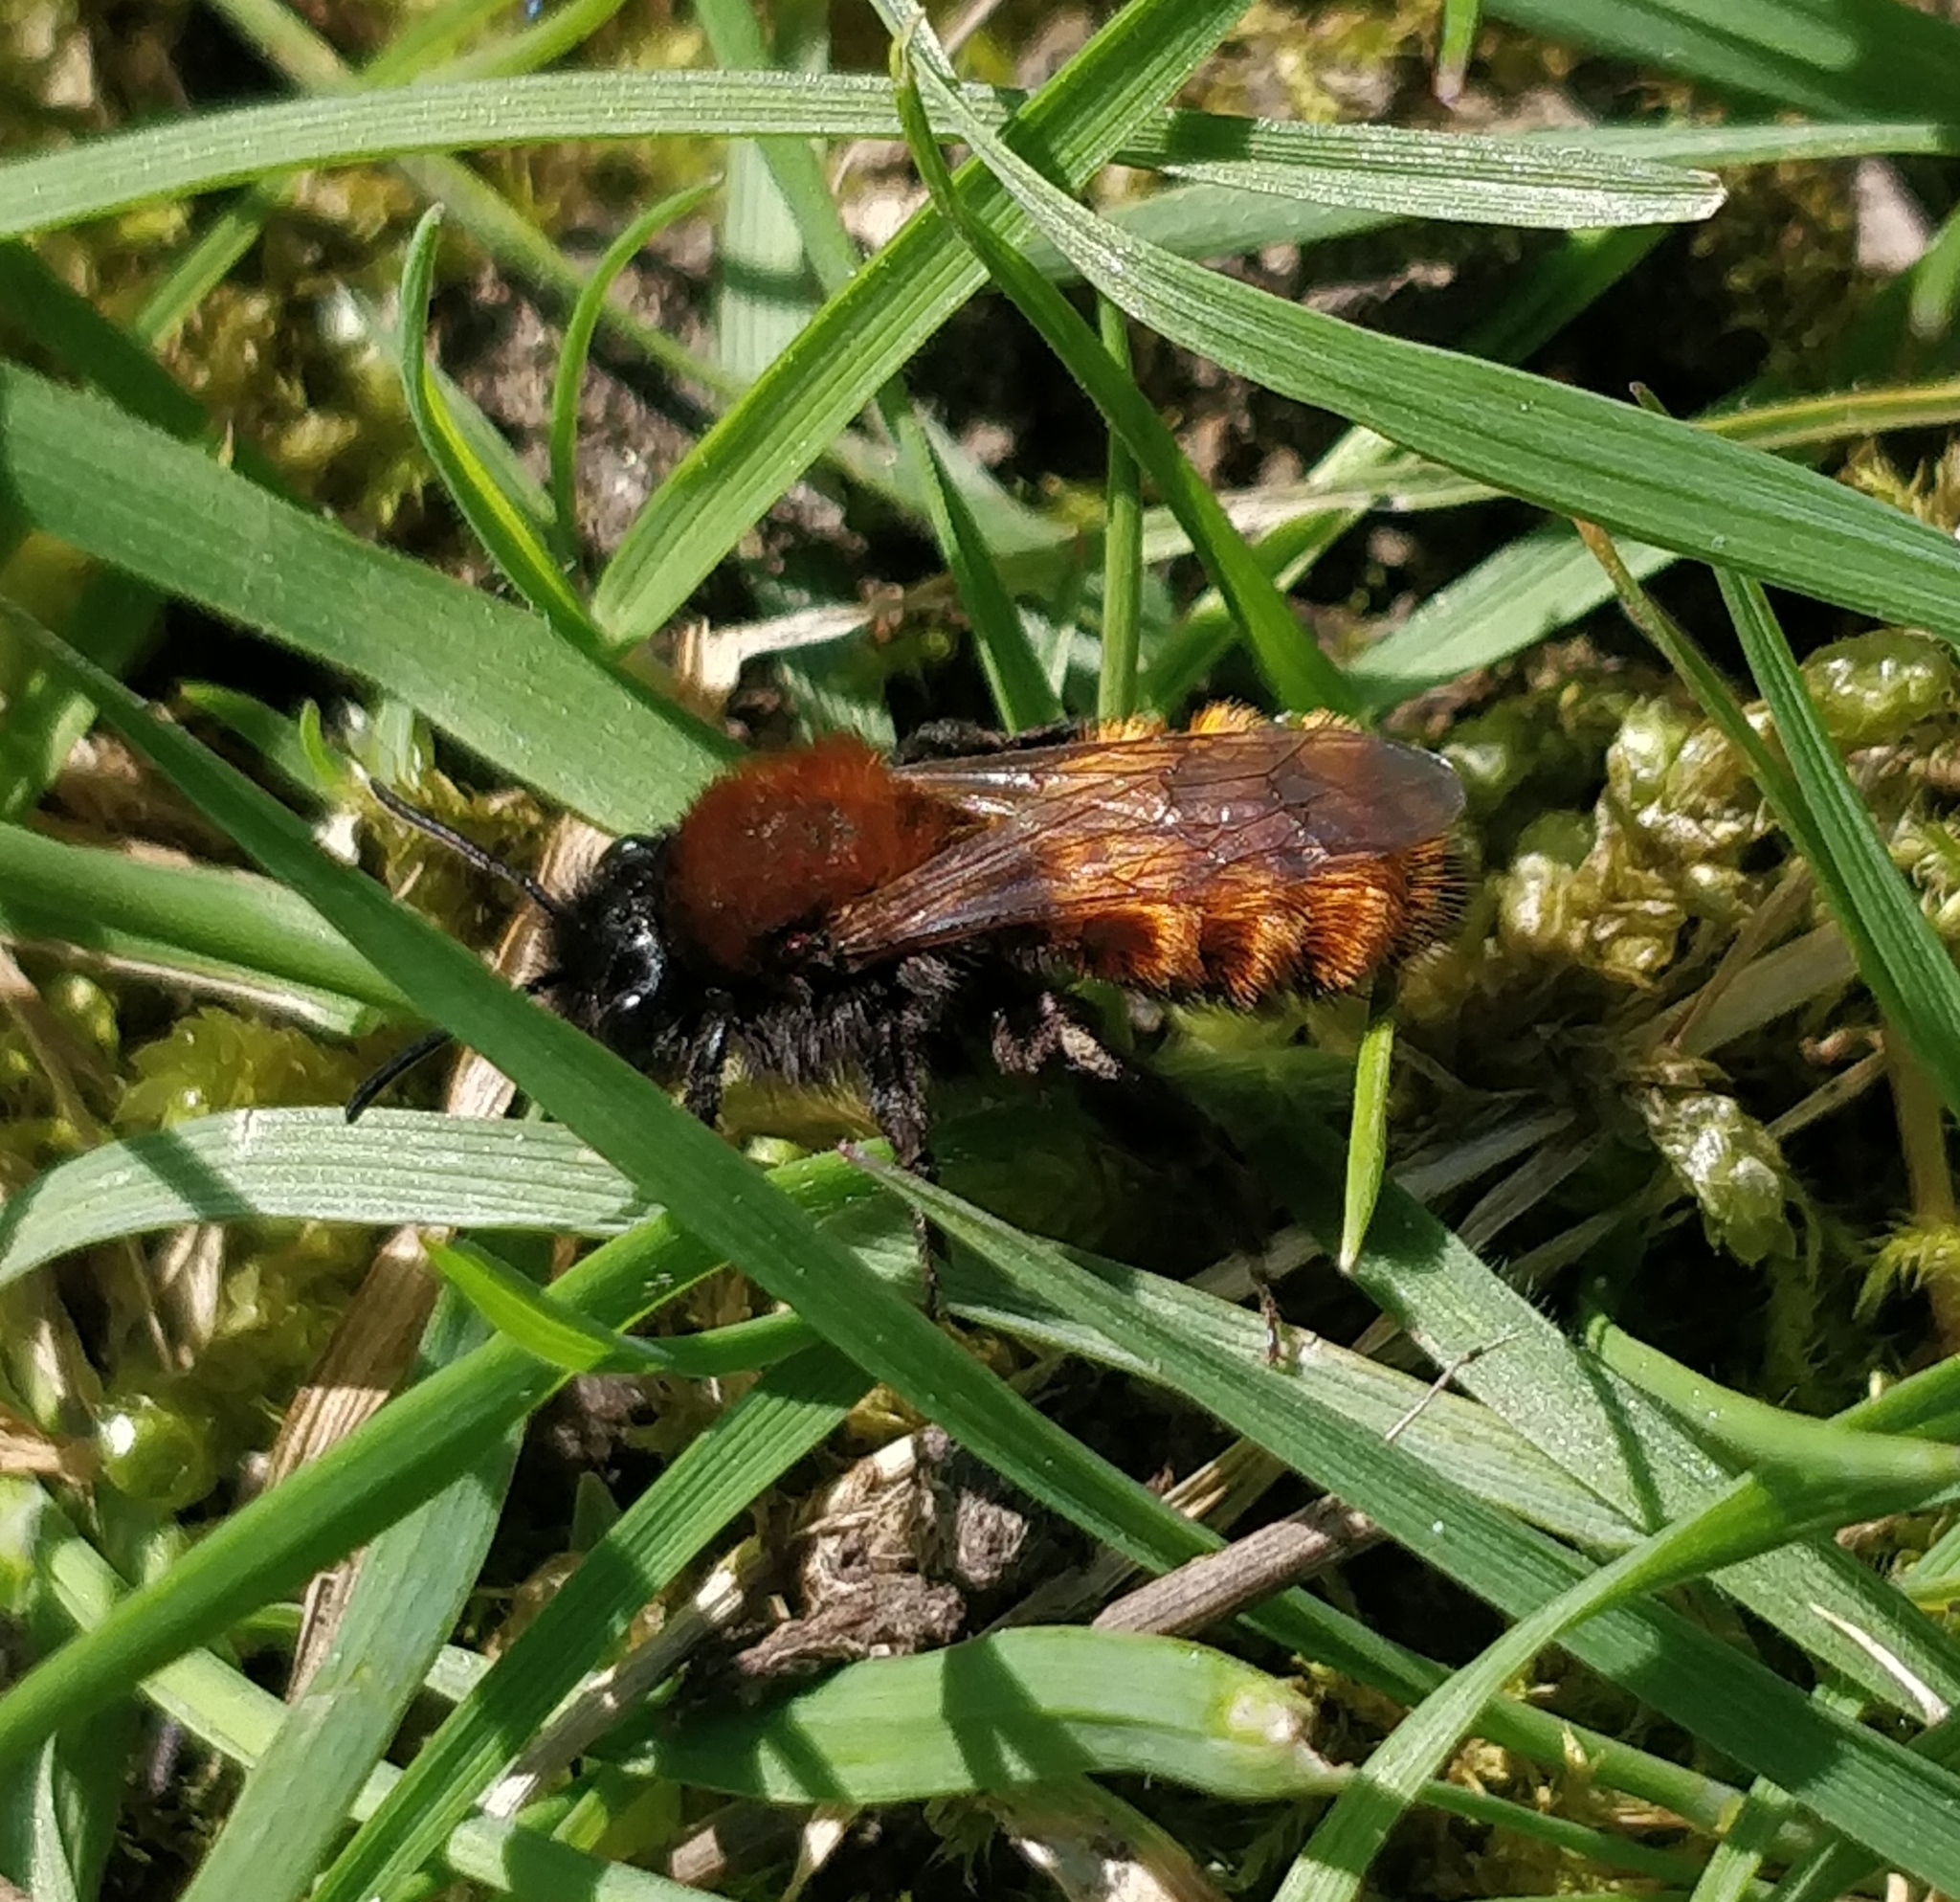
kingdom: Animalia
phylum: Arthropoda
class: Insecta
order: Hymenoptera
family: Andrenidae
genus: Andrena
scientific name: Andrena fulva
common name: Tawny mining bee
